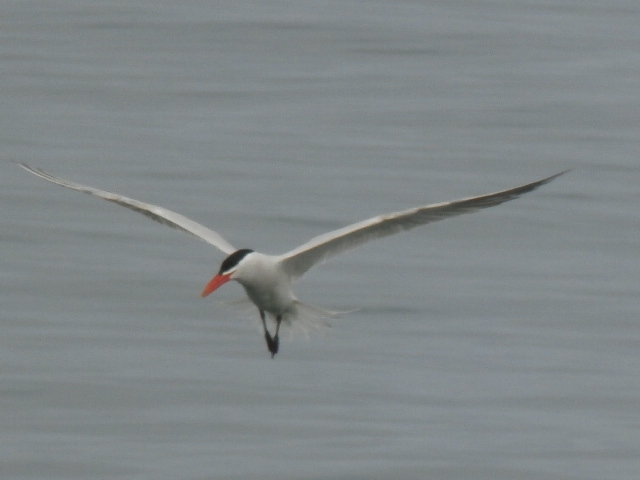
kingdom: Animalia
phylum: Chordata
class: Aves
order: Charadriiformes
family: Laridae
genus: Hydroprogne
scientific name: Hydroprogne caspia
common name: Caspian tern
